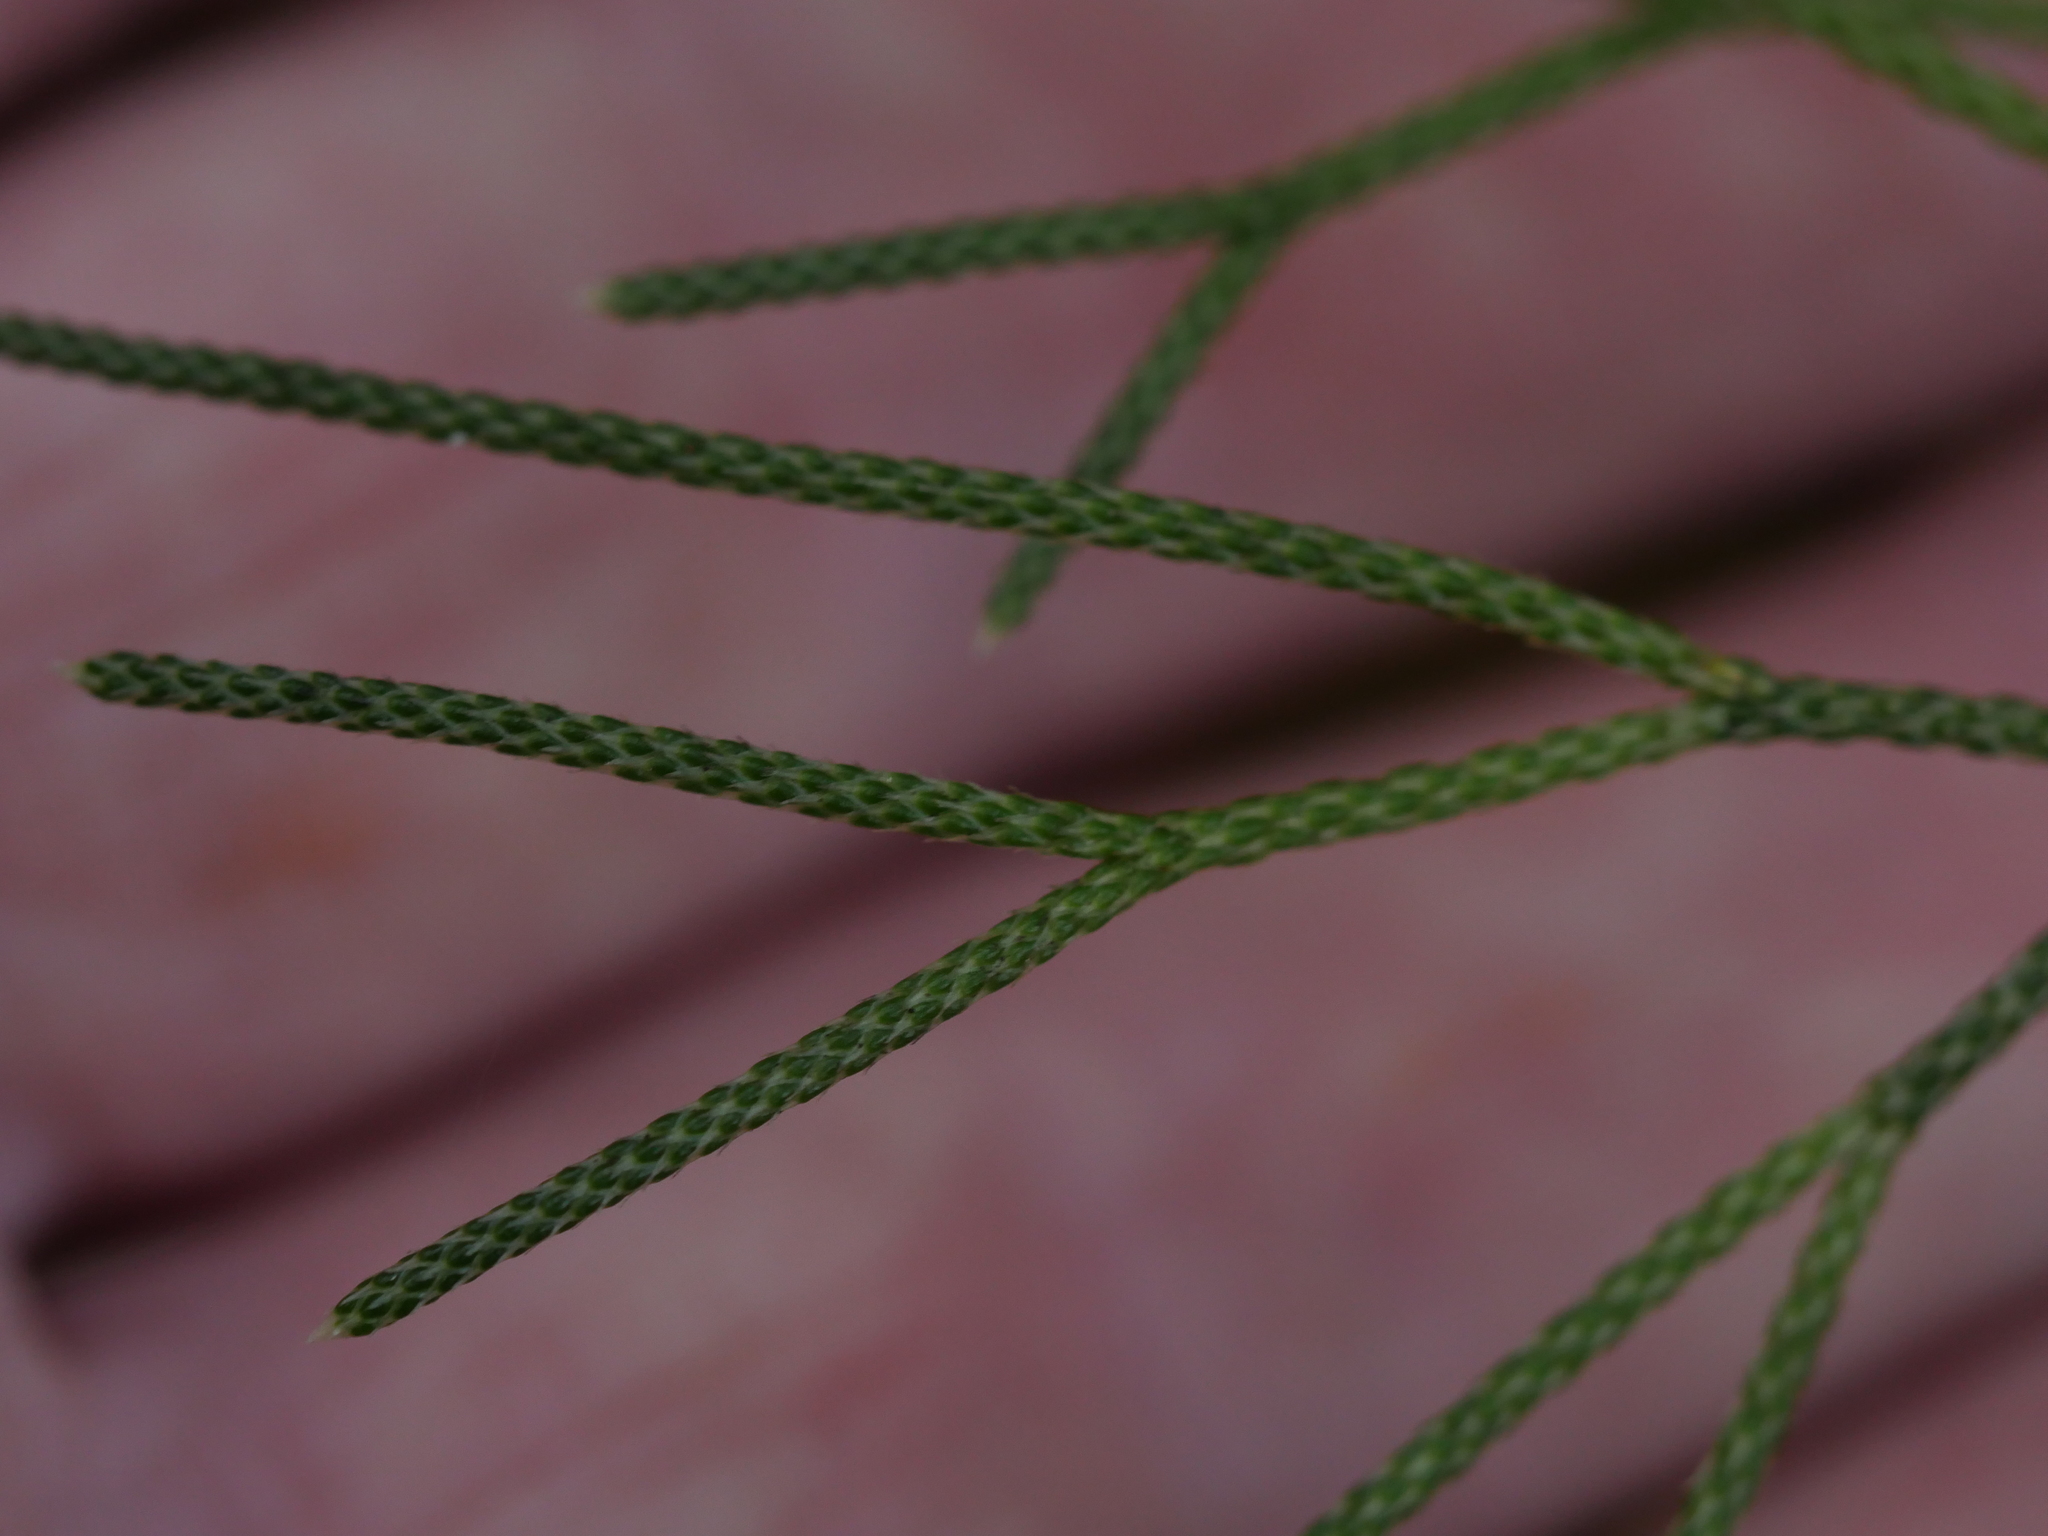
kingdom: Plantae
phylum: Tracheophyta
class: Lycopodiopsida
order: Lycopodiales
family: Lycopodiaceae
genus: Pseudolycopodium
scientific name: Pseudolycopodium densum
